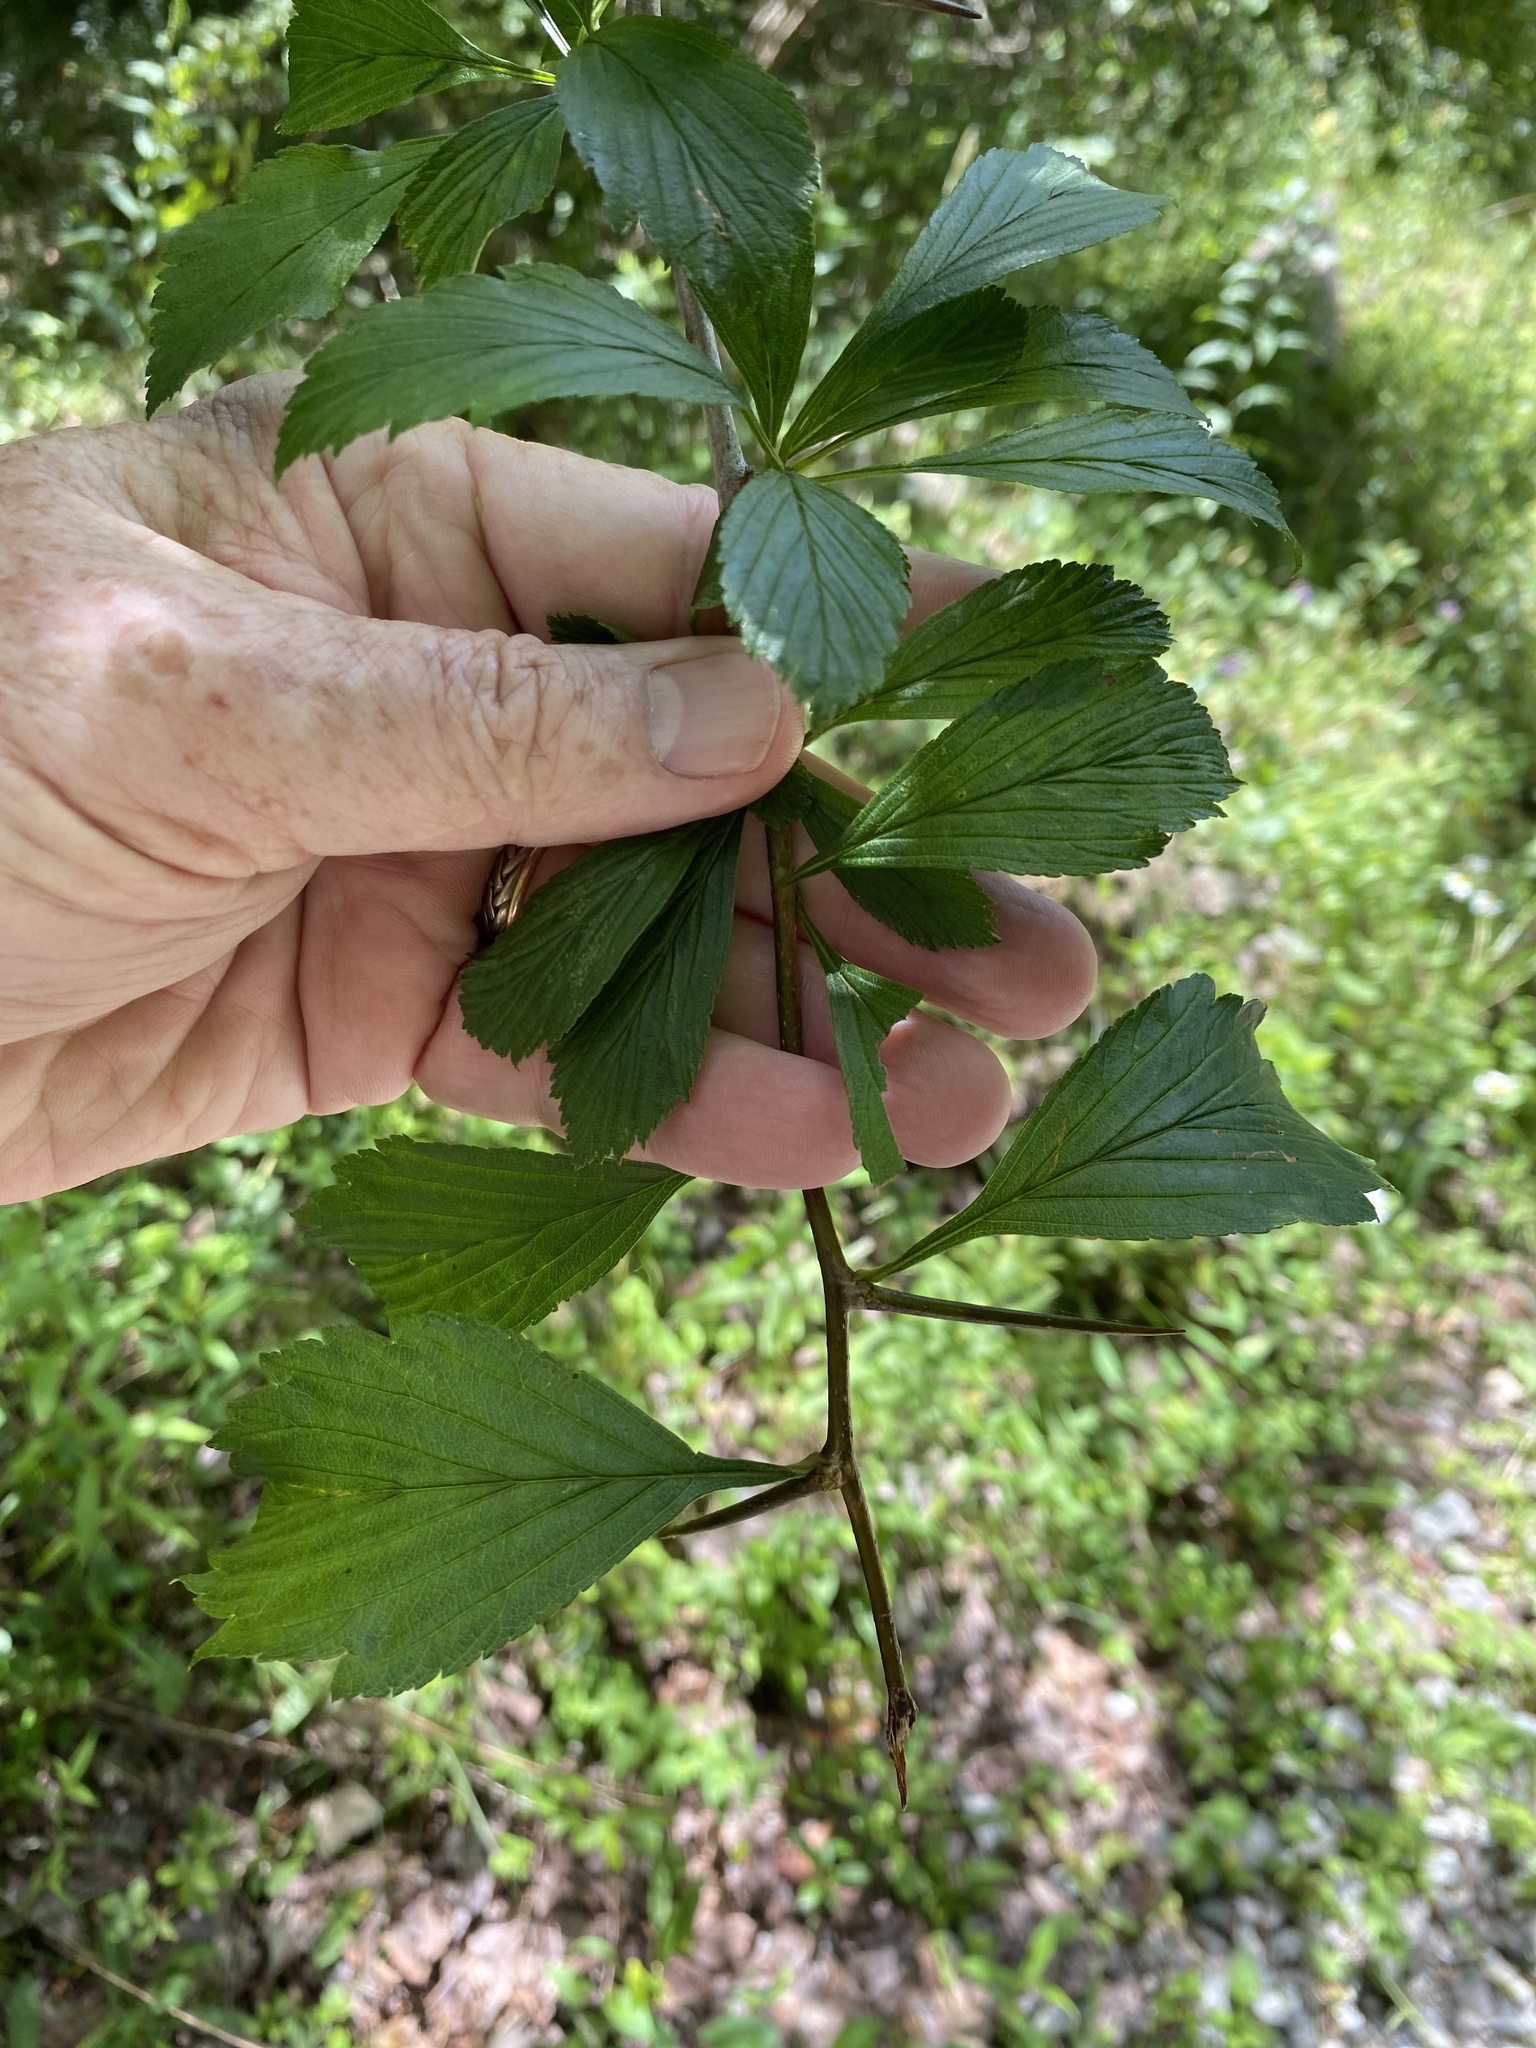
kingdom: Plantae
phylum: Tracheophyta
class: Magnoliopsida
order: Rosales
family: Rosaceae
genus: Crataegus
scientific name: Crataegus punctata
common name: Dotted hawthorn
